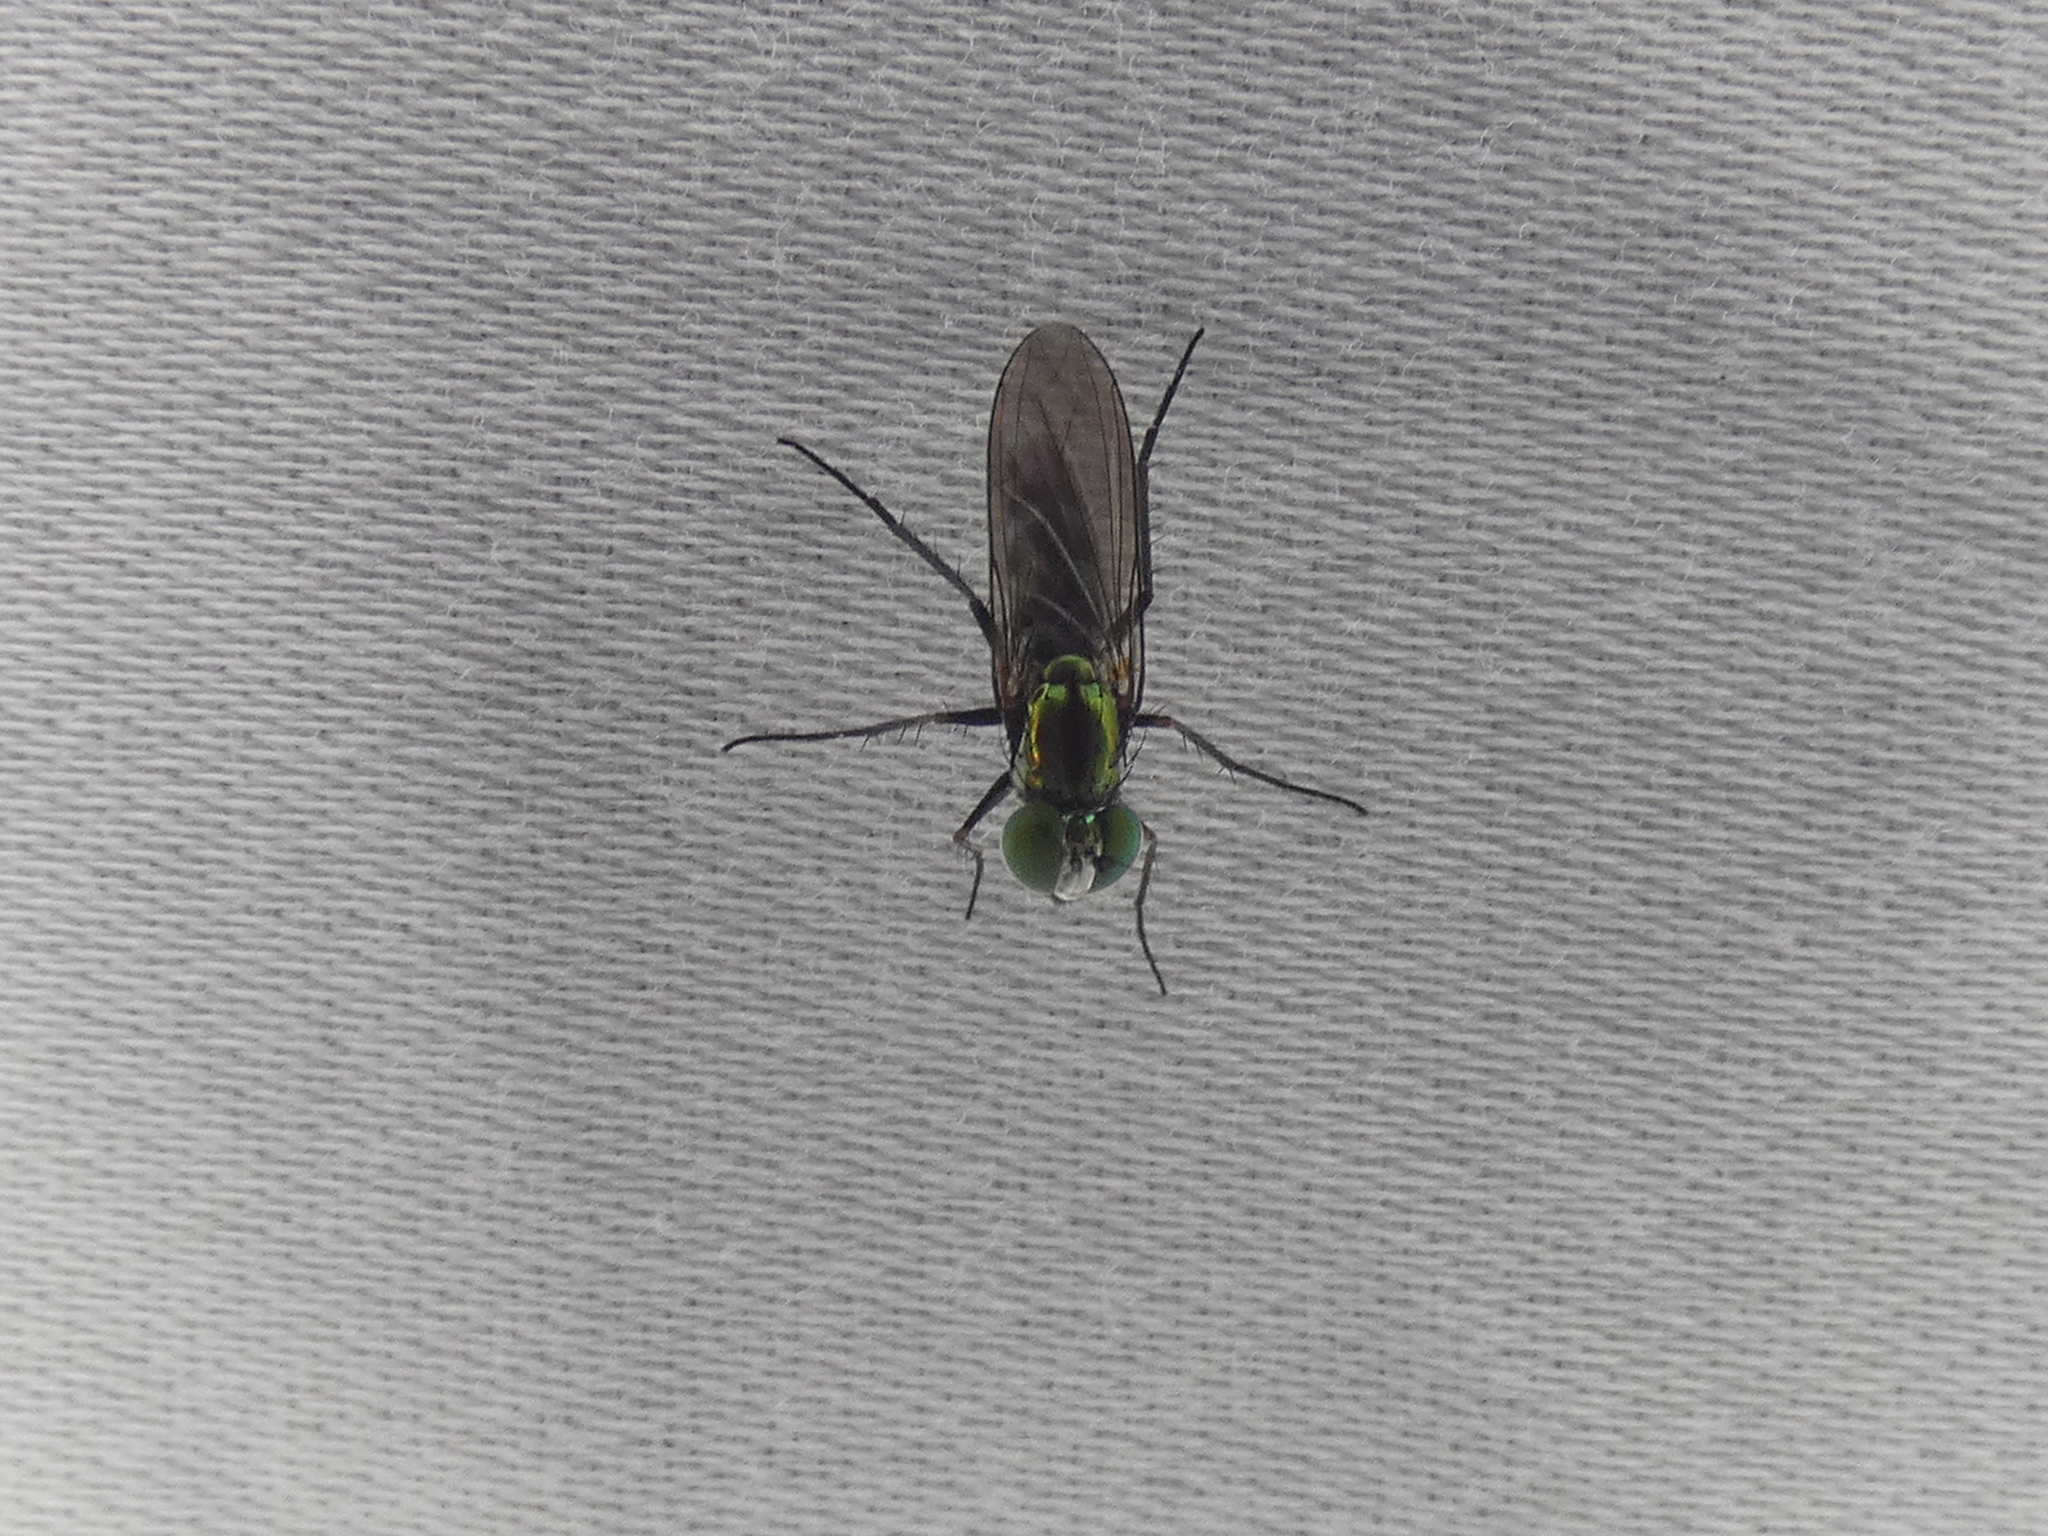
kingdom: Animalia
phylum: Arthropoda
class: Insecta
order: Diptera
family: Dolichopodidae
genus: Plagioneurus
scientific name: Plagioneurus univittatus
